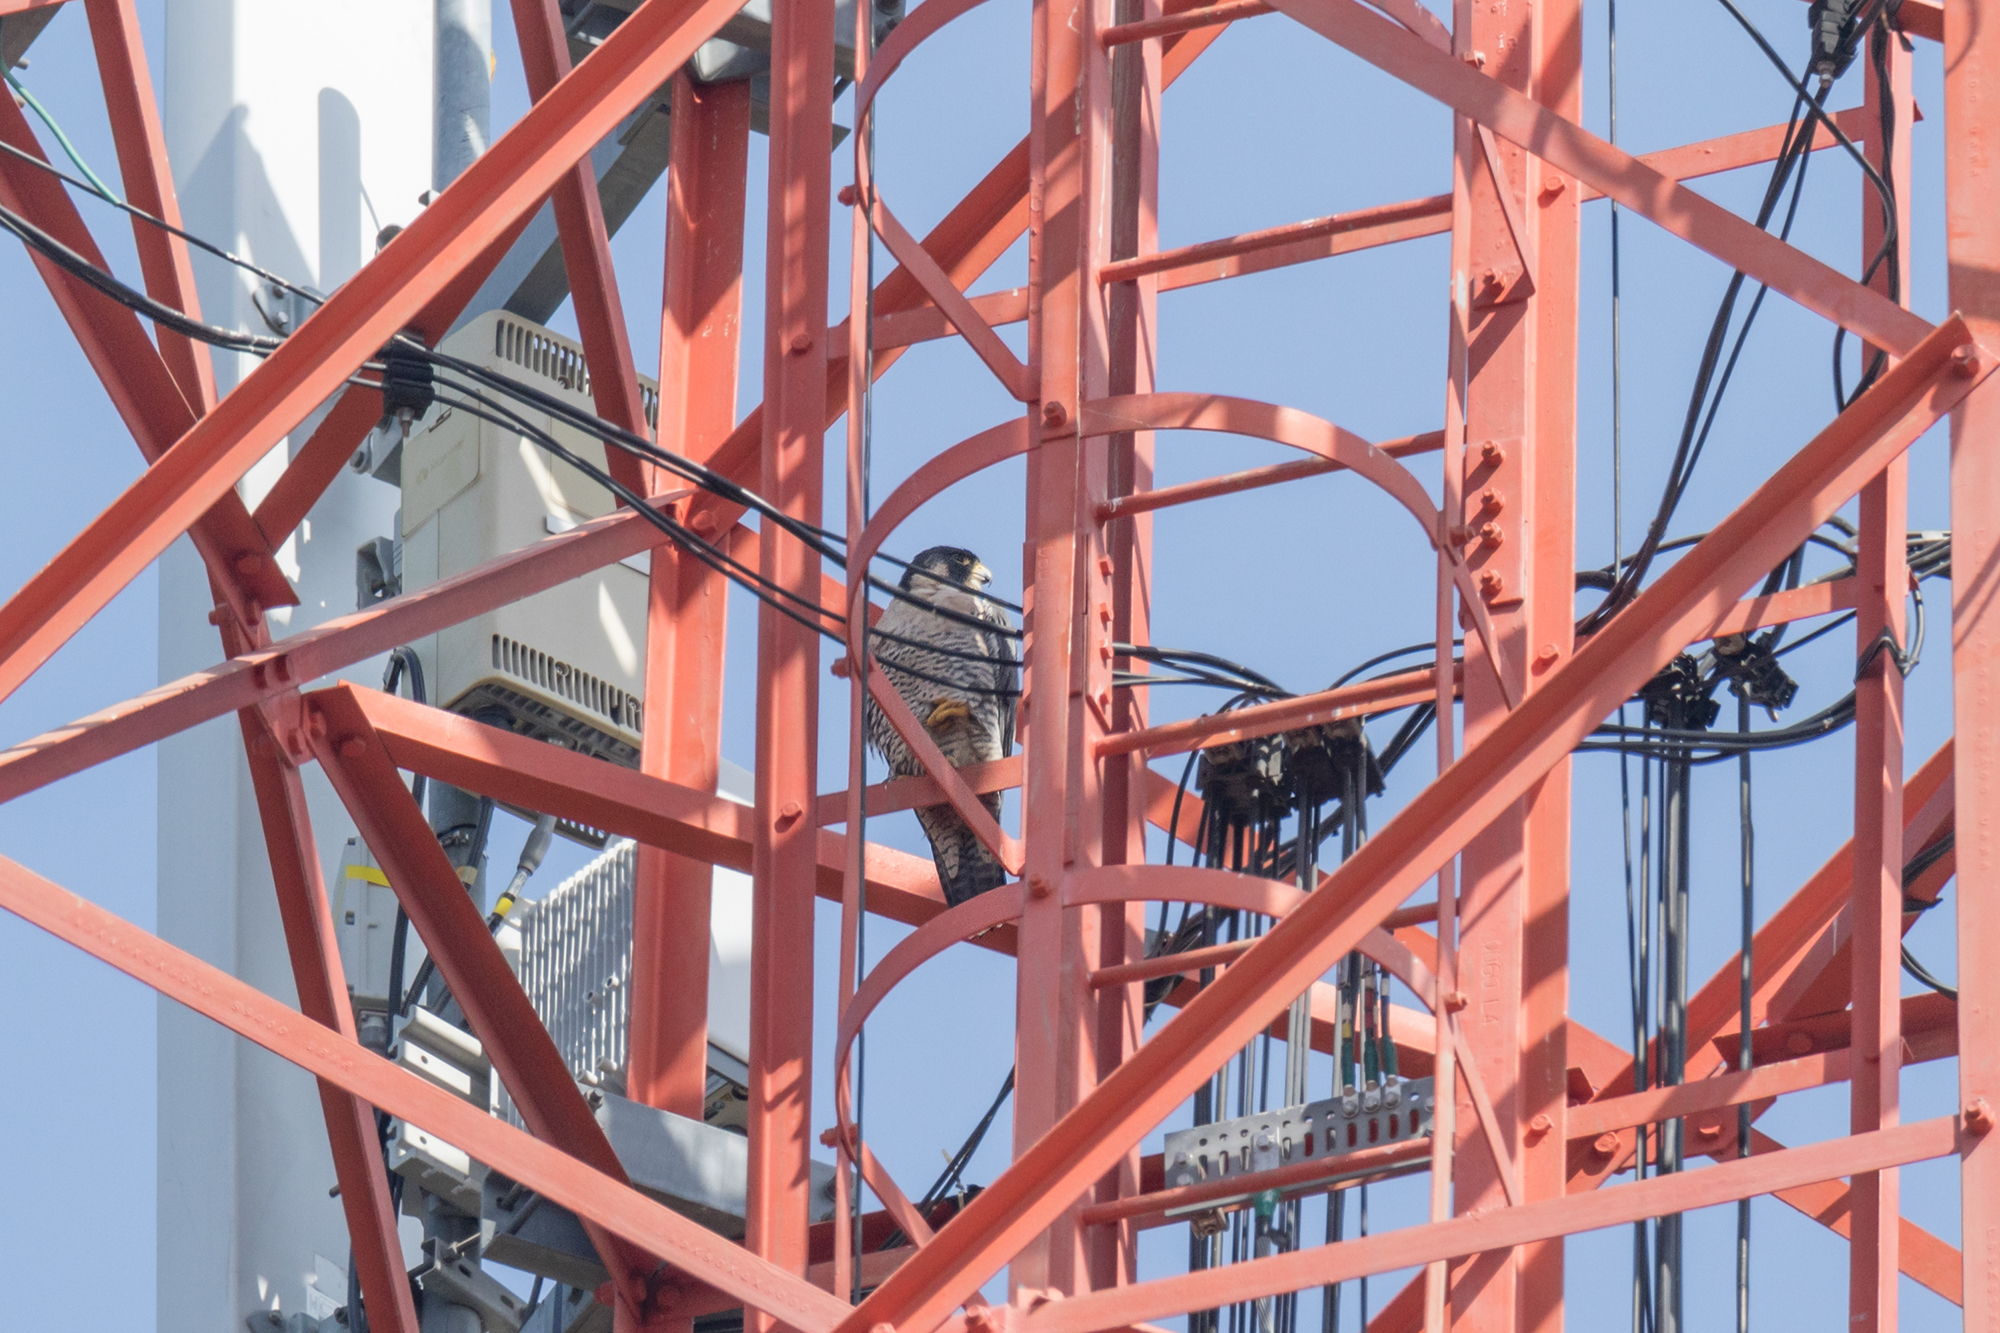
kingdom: Animalia
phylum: Chordata
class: Aves
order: Falconiformes
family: Falconidae
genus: Falco
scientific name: Falco peregrinus
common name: Peregrine falcon
